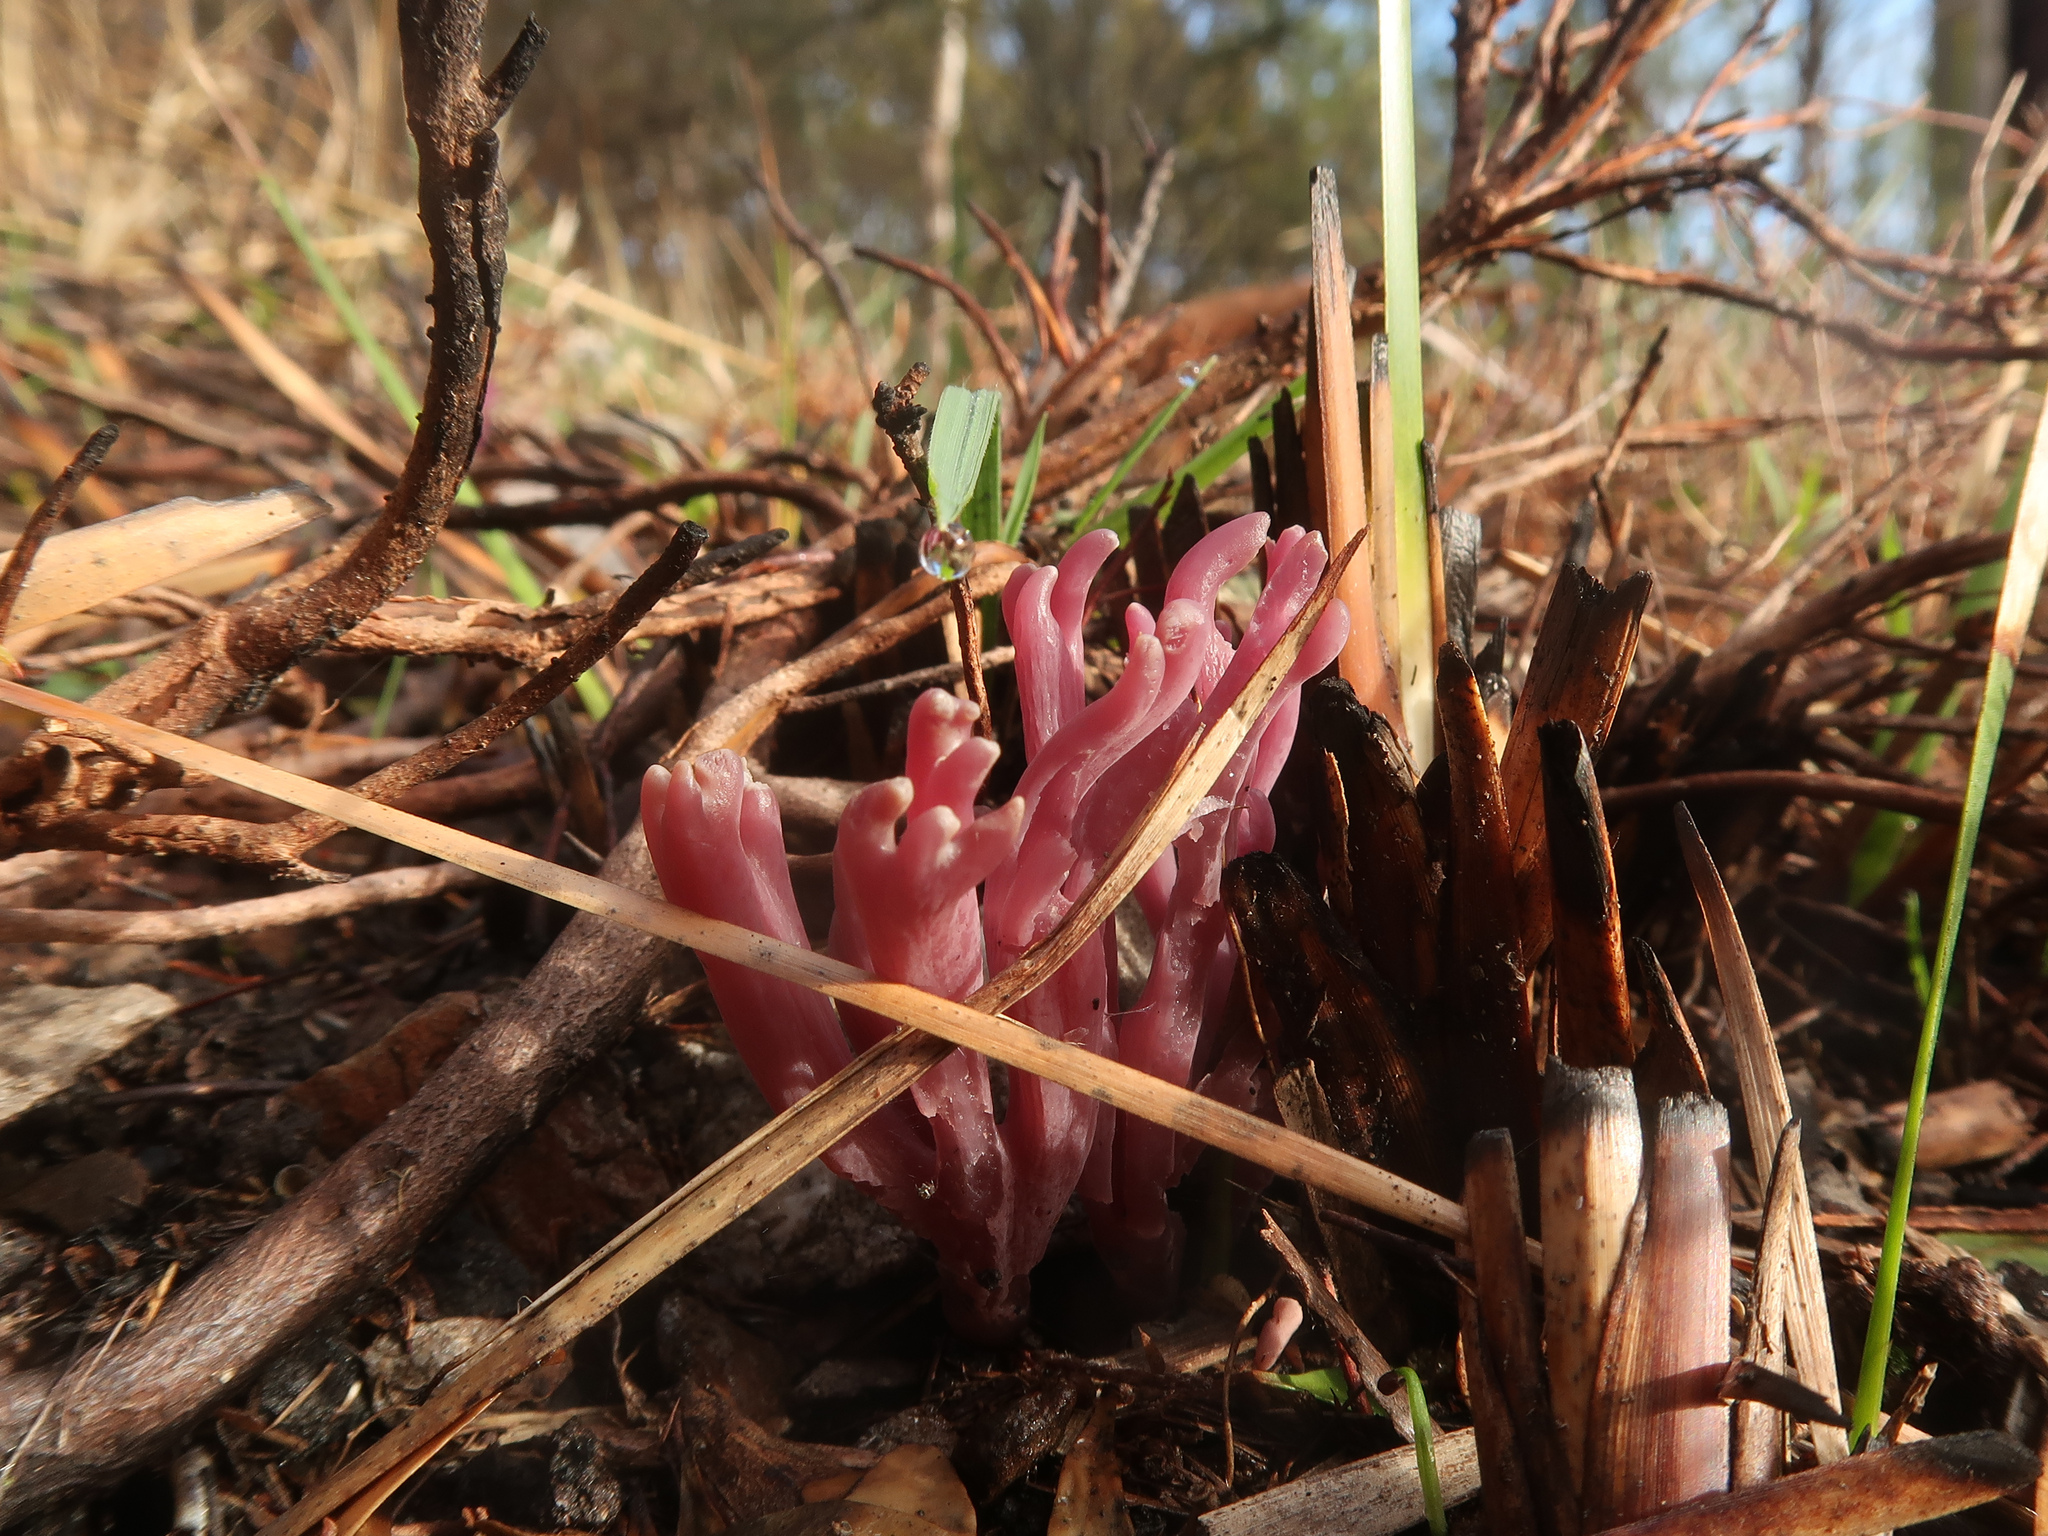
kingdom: Fungi
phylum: Basidiomycota
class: Agaricomycetes
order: Agaricales
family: Clavariaceae
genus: Clavaria
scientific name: Clavaria zollingeri
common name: Violet coral
